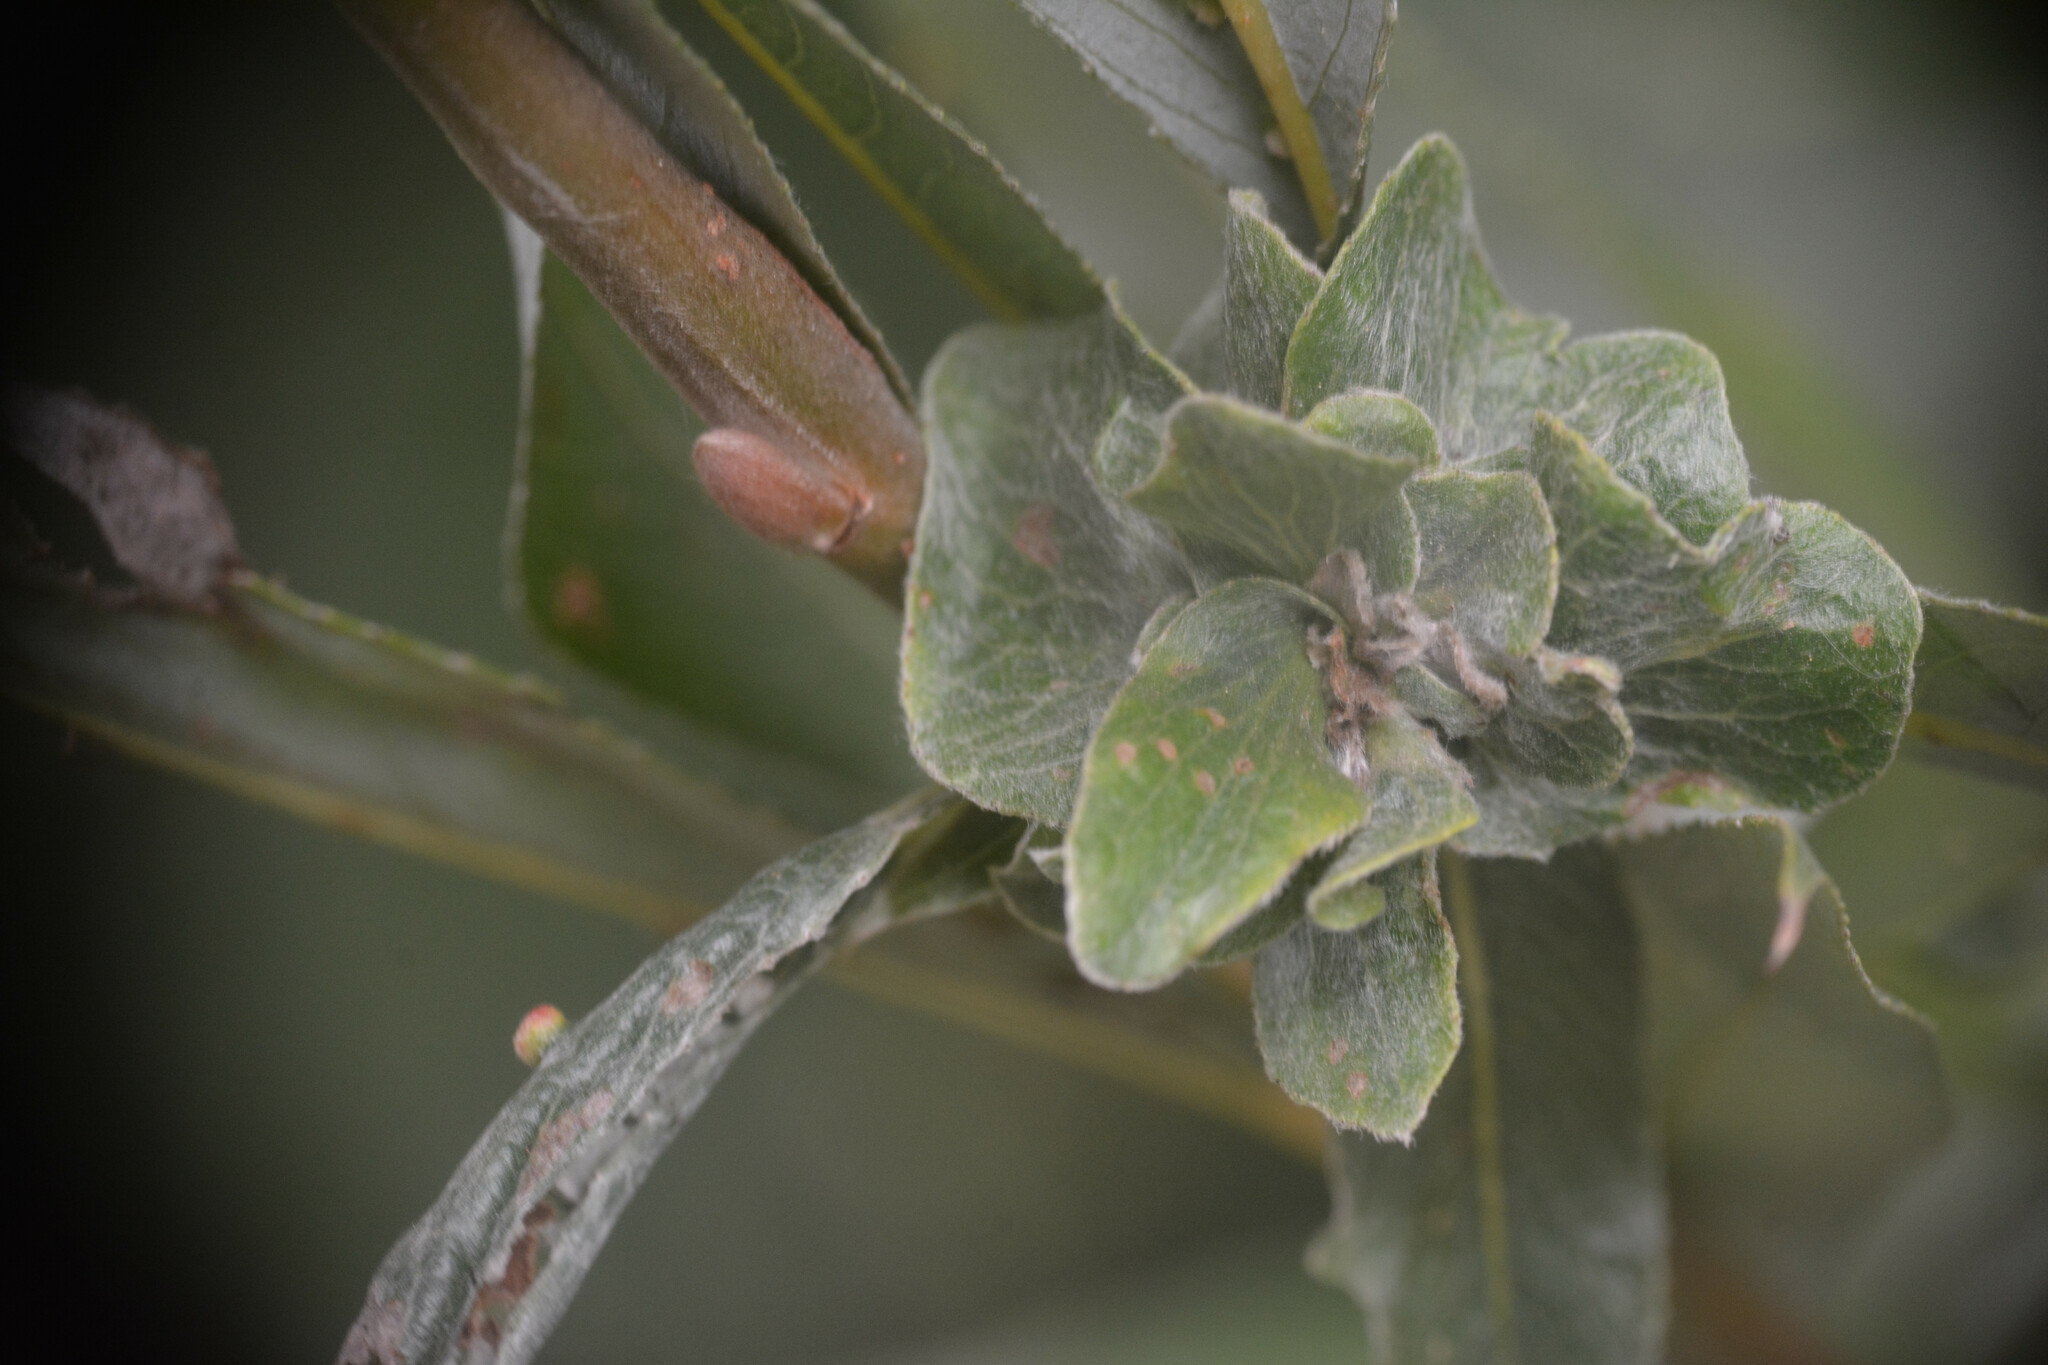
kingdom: Animalia
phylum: Arthropoda
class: Insecta
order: Diptera
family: Cecidomyiidae
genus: Rabdophaga
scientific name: Rabdophaga rosaria
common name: Willow rose gall midge
